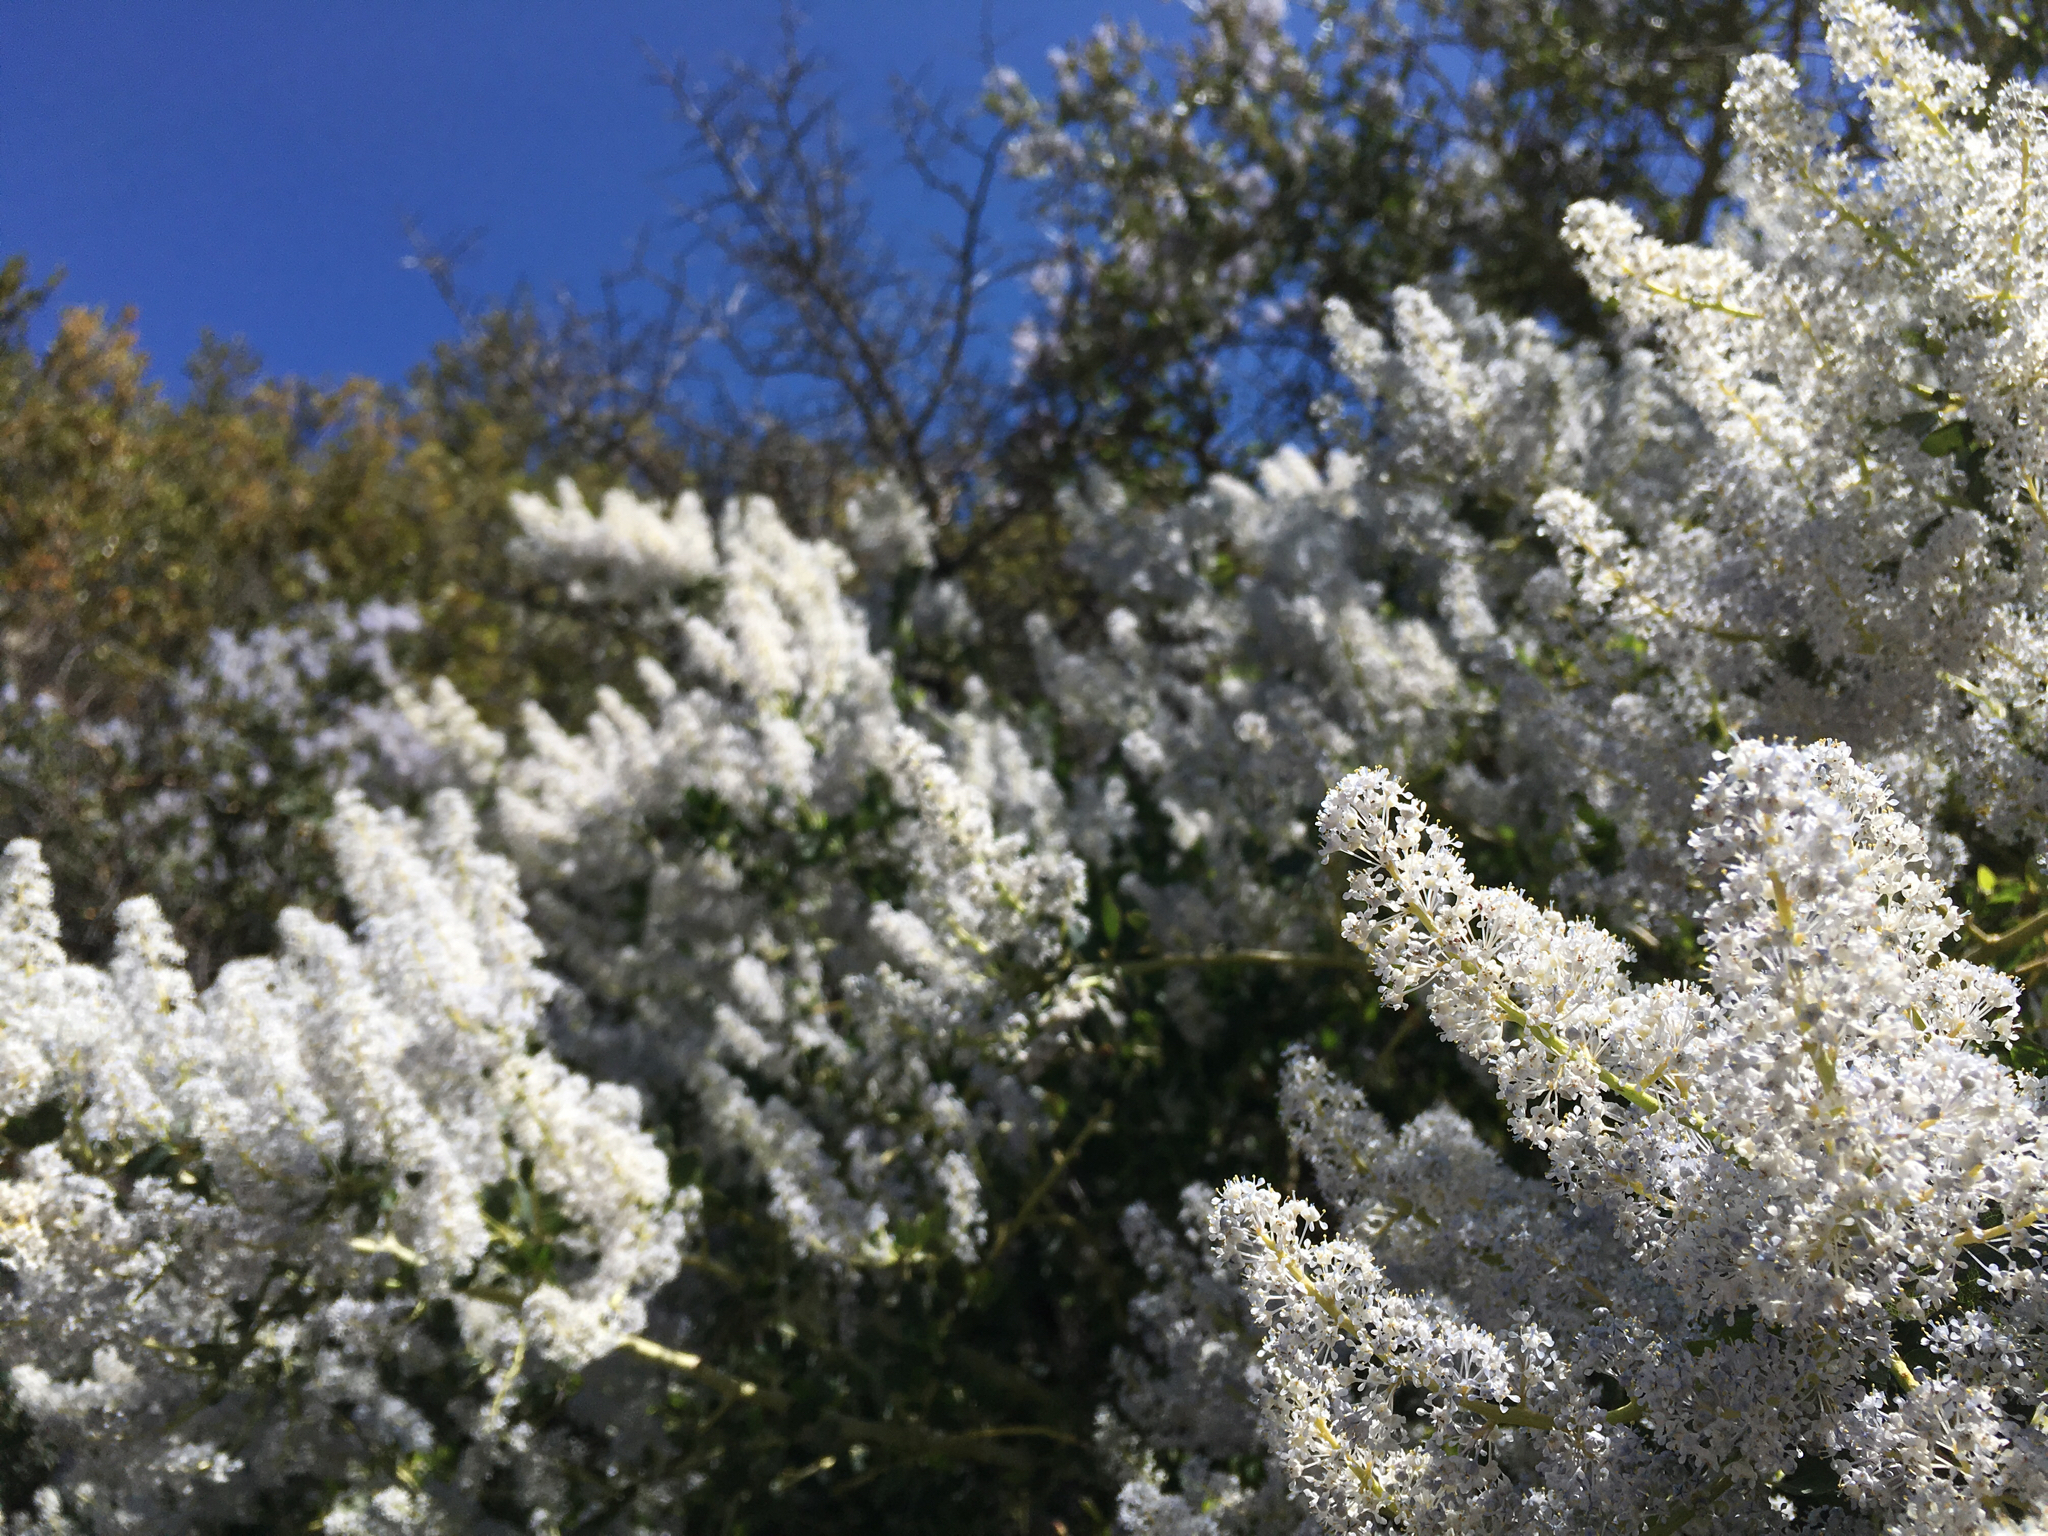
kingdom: Plantae
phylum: Tracheophyta
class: Magnoliopsida
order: Rosales
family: Rhamnaceae
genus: Ceanothus
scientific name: Ceanothus
